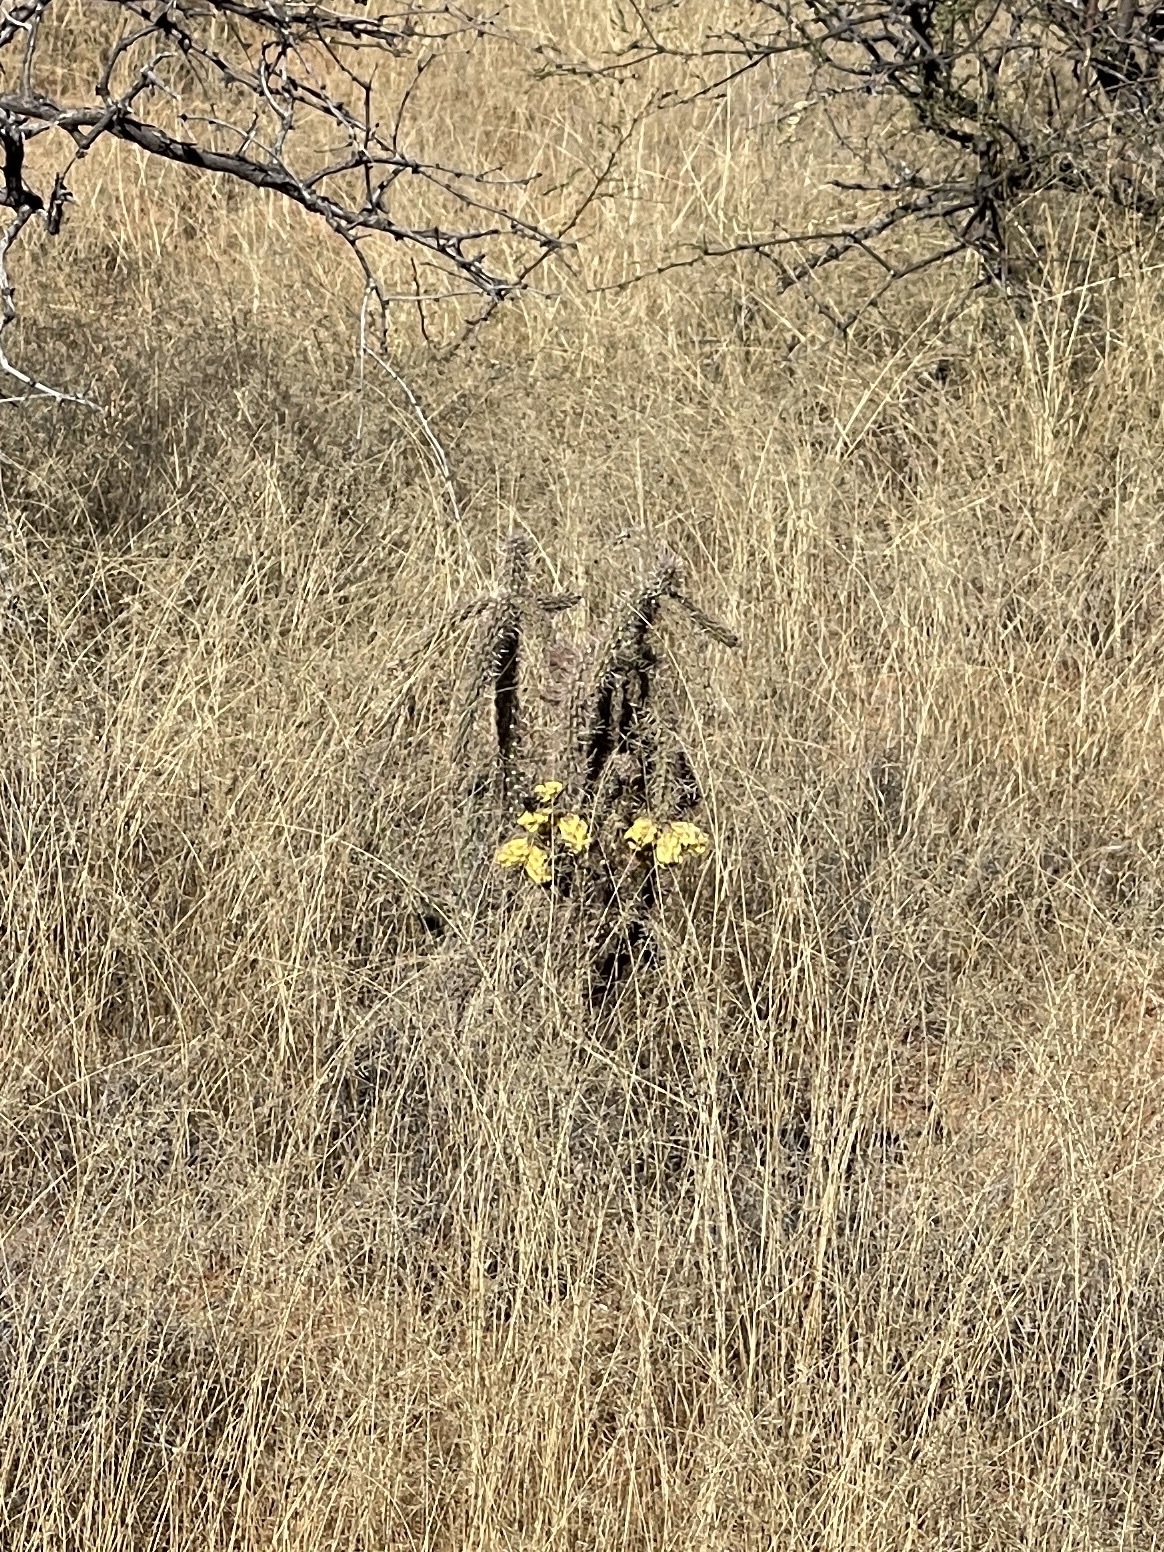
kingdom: Plantae
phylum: Tracheophyta
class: Magnoliopsida
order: Caryophyllales
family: Cactaceae
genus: Cylindropuntia
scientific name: Cylindropuntia imbricata
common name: Candelabrum cactus
